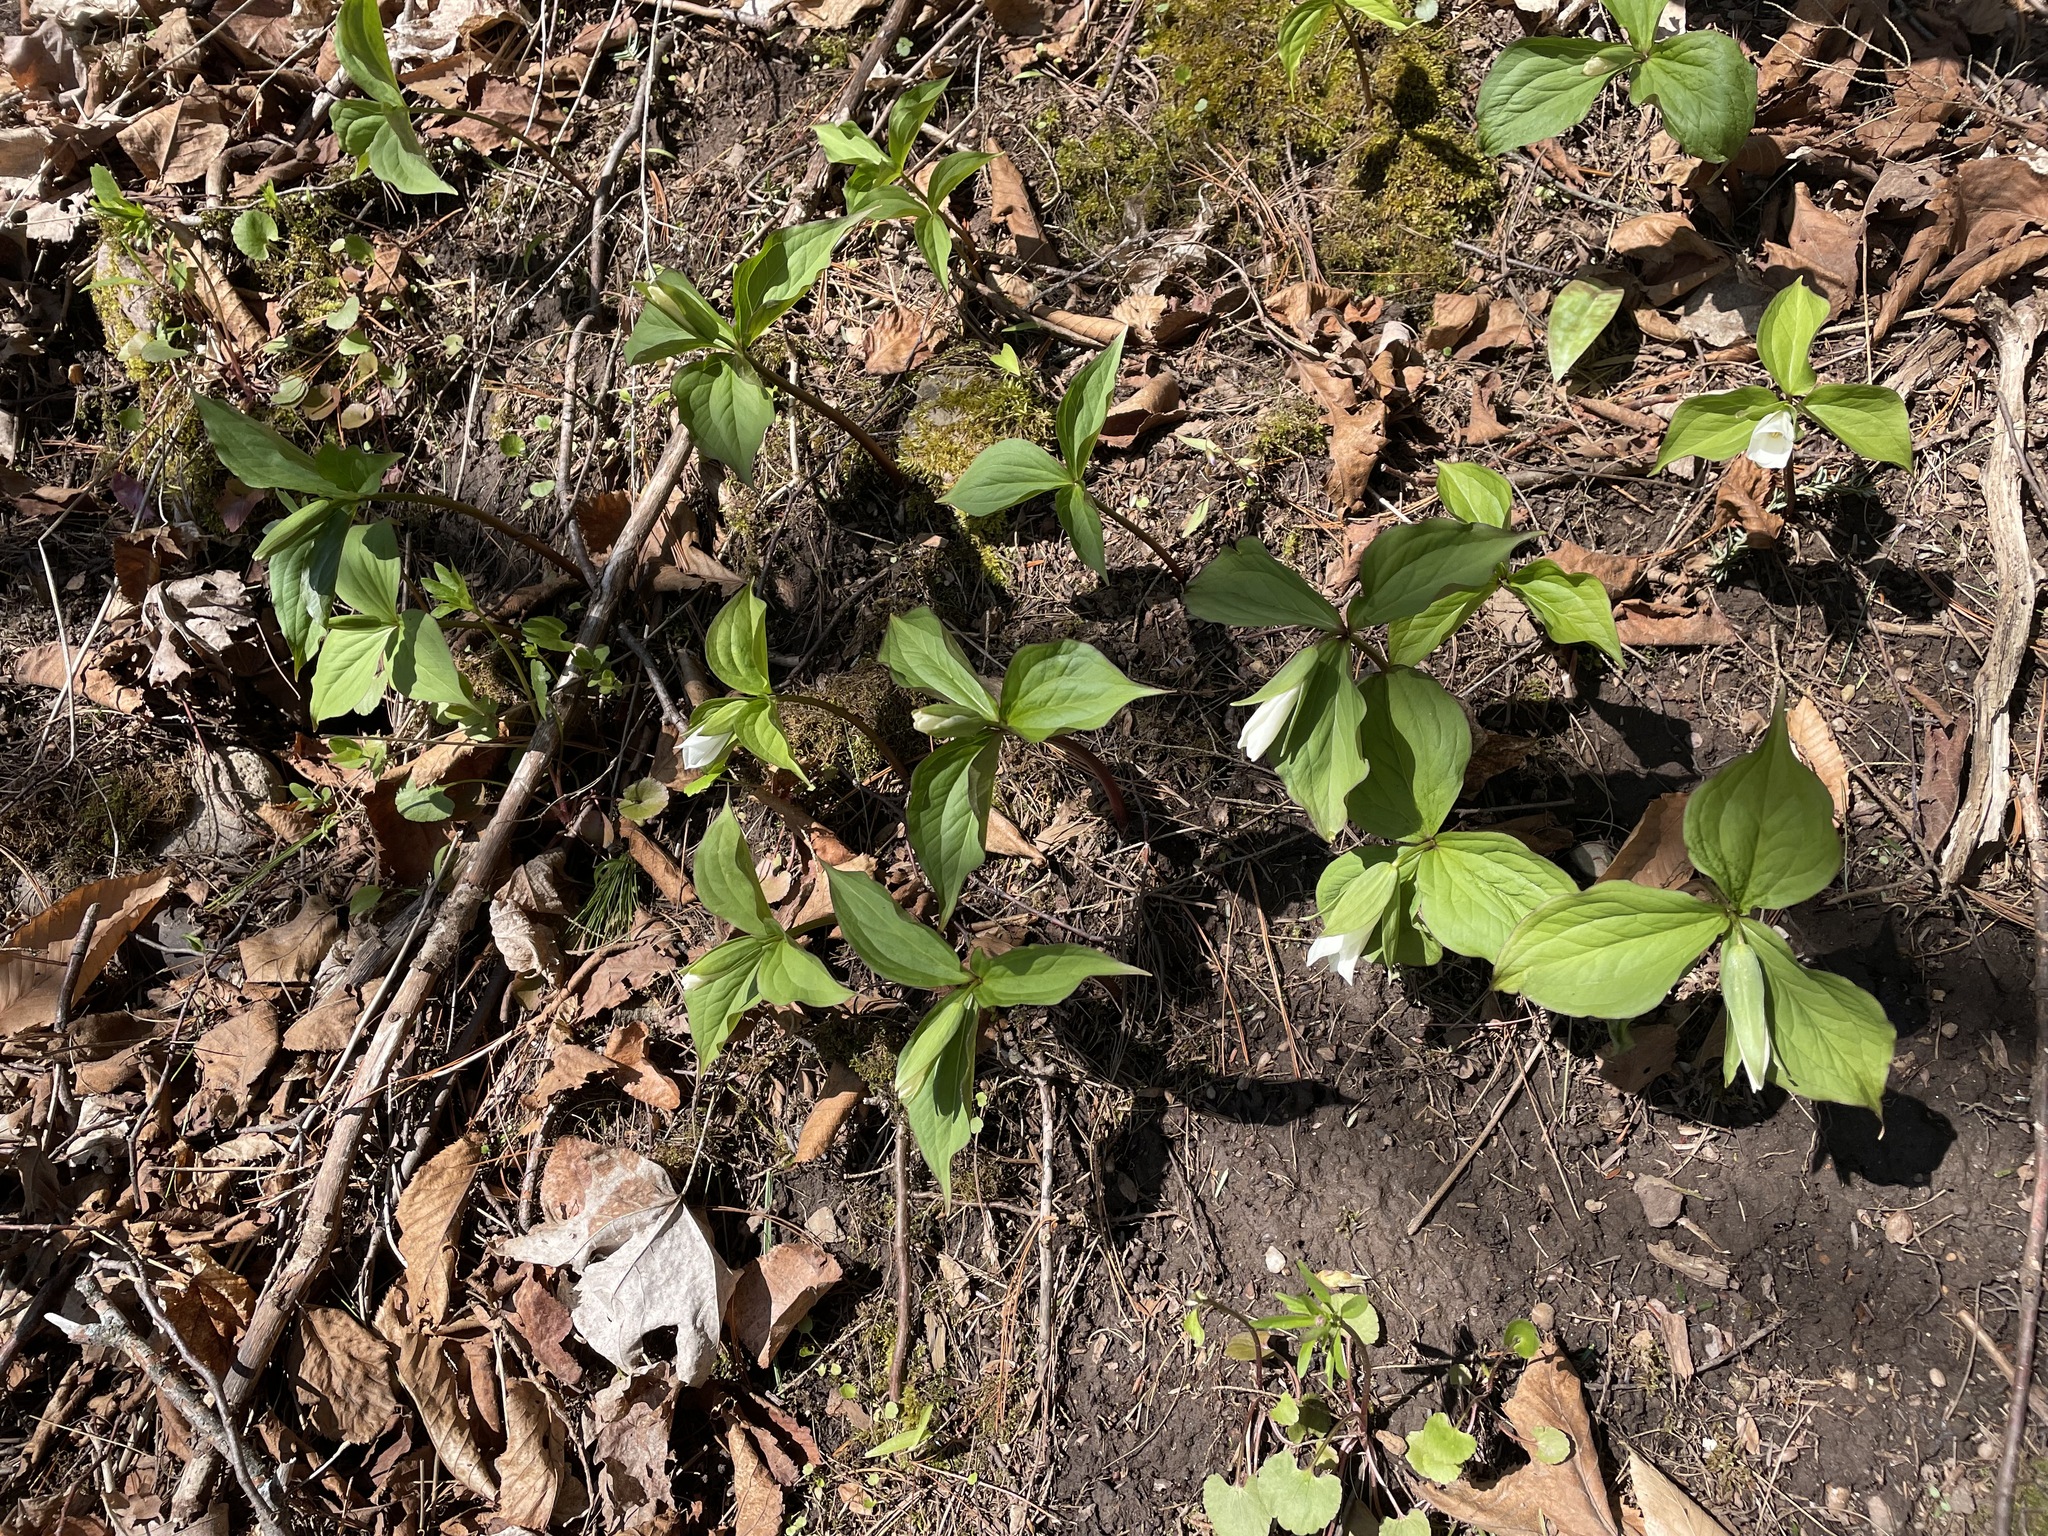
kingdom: Plantae
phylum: Tracheophyta
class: Liliopsida
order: Liliales
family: Melanthiaceae
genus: Trillium
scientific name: Trillium grandiflorum
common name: Great white trillium
